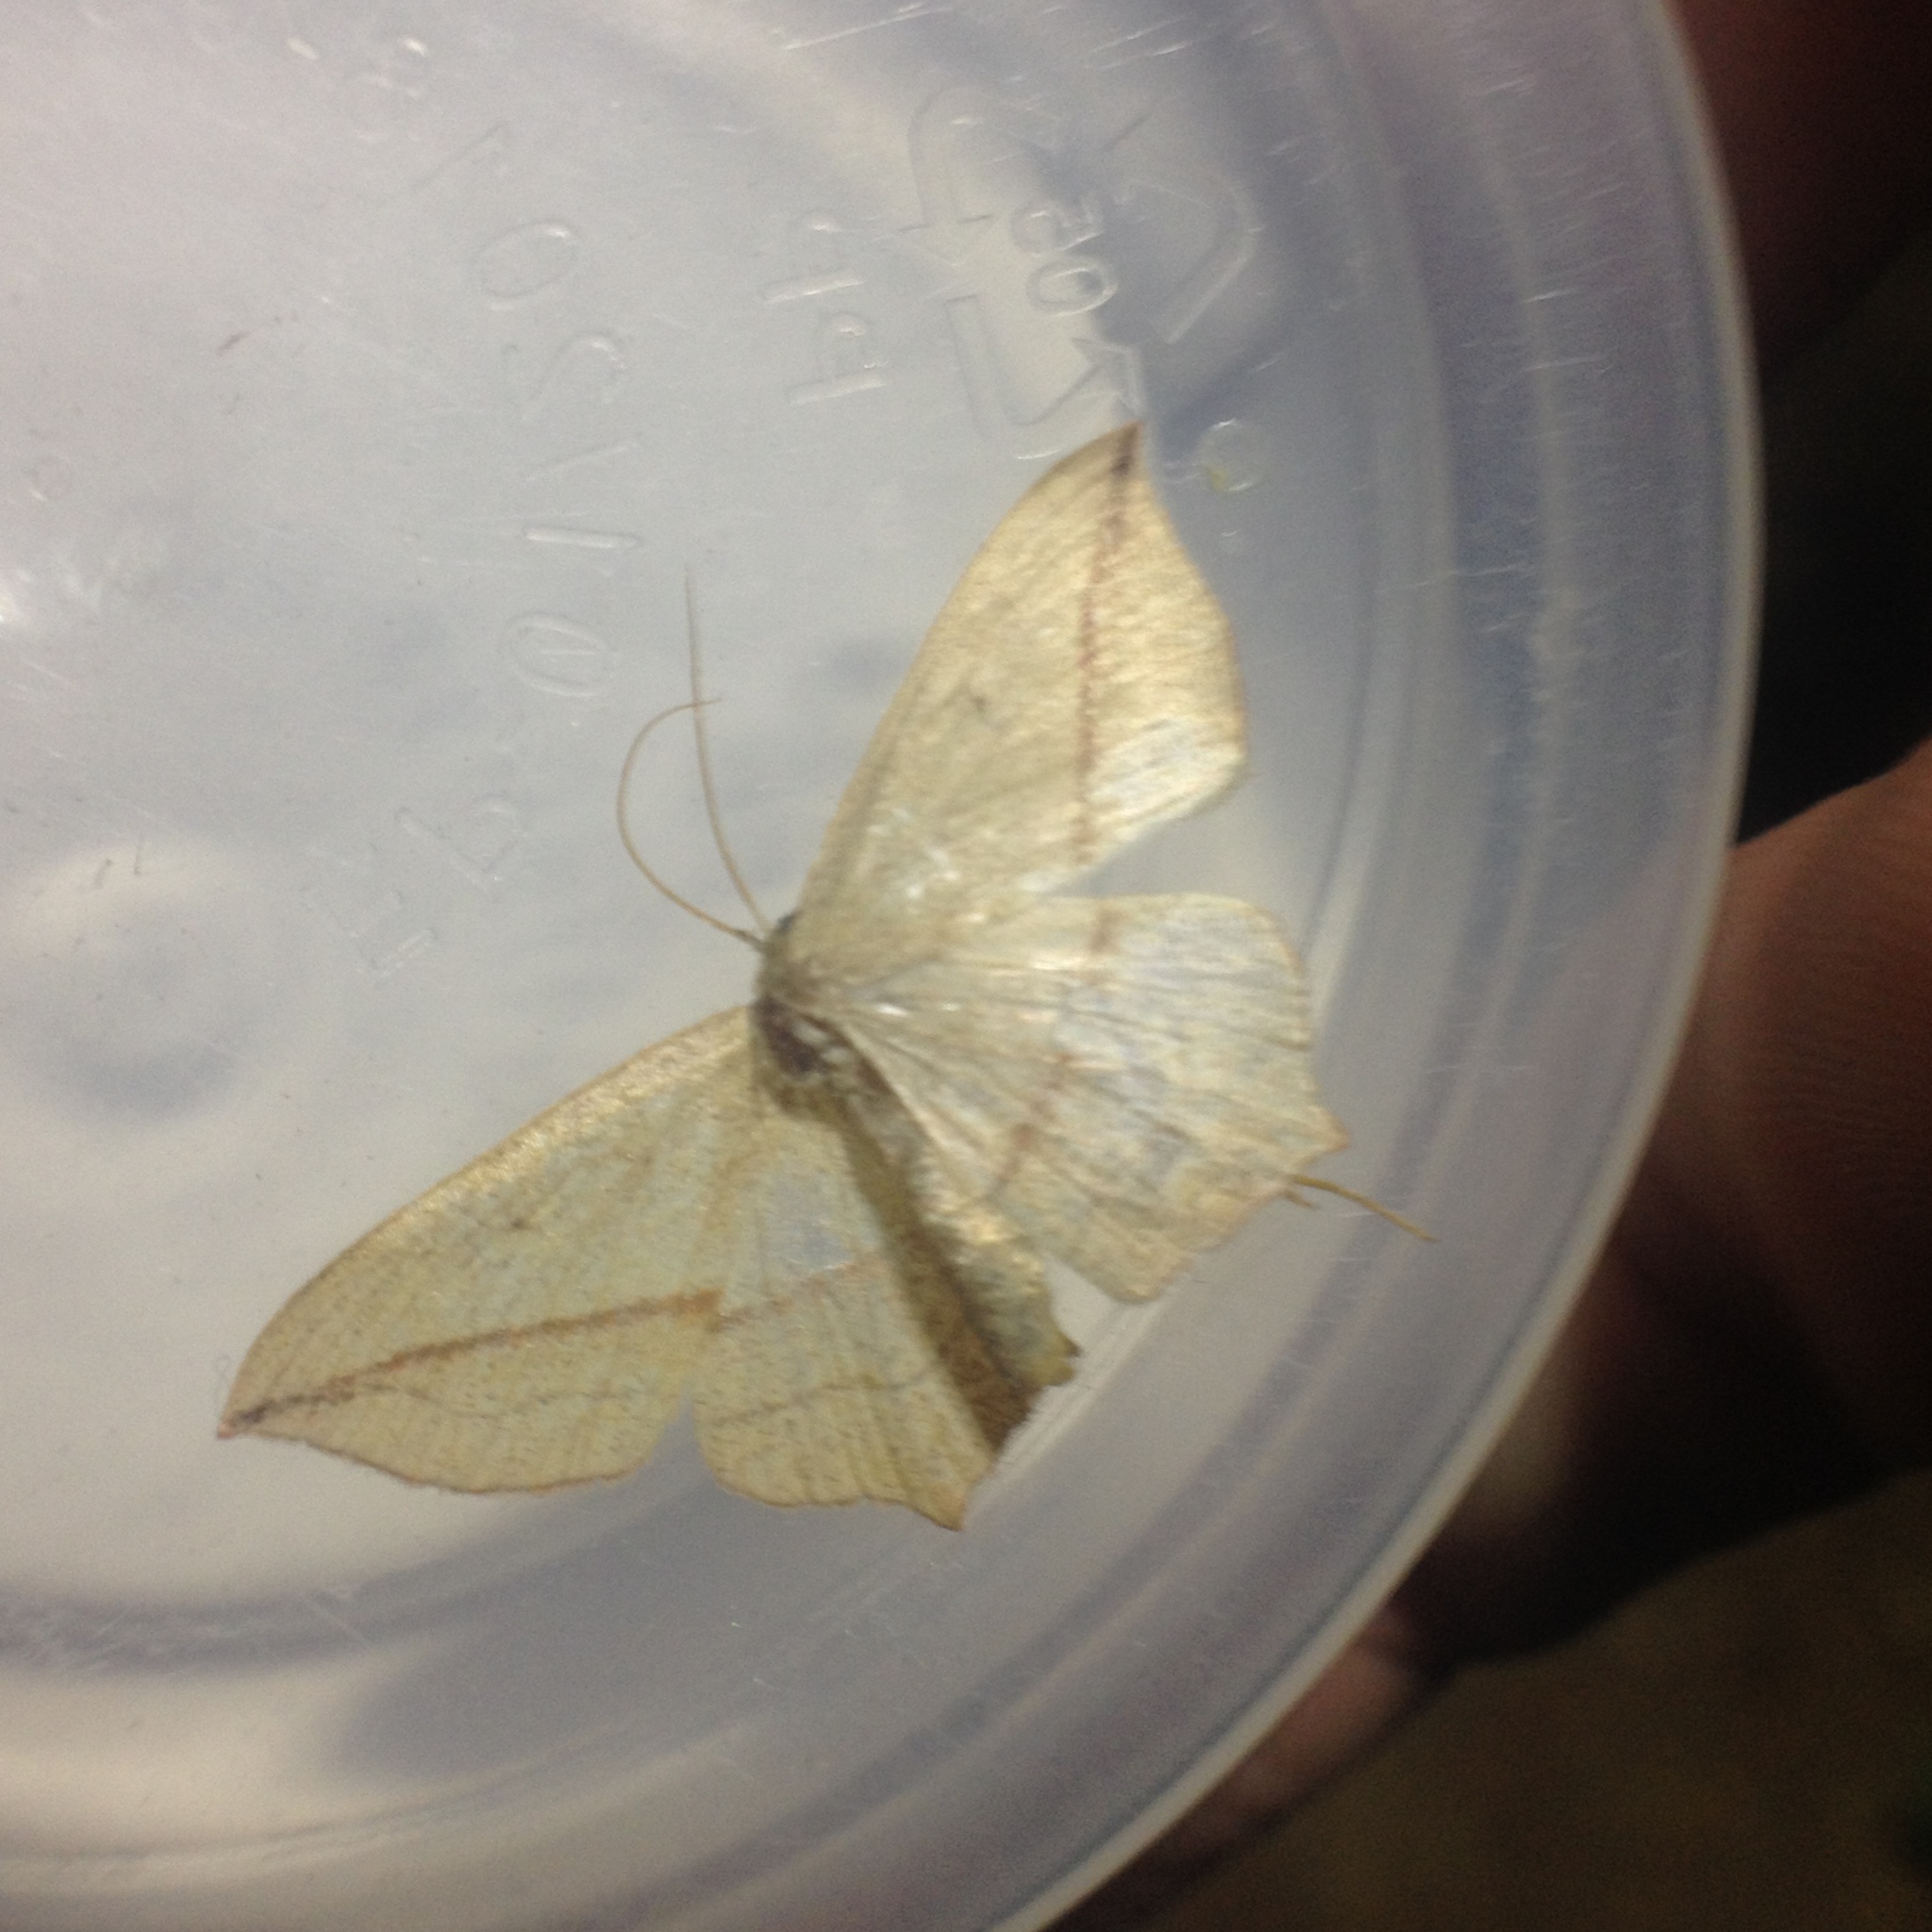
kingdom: Animalia
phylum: Arthropoda
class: Insecta
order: Lepidoptera
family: Geometridae
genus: Timandra
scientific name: Timandra comae
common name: Blood-vein
